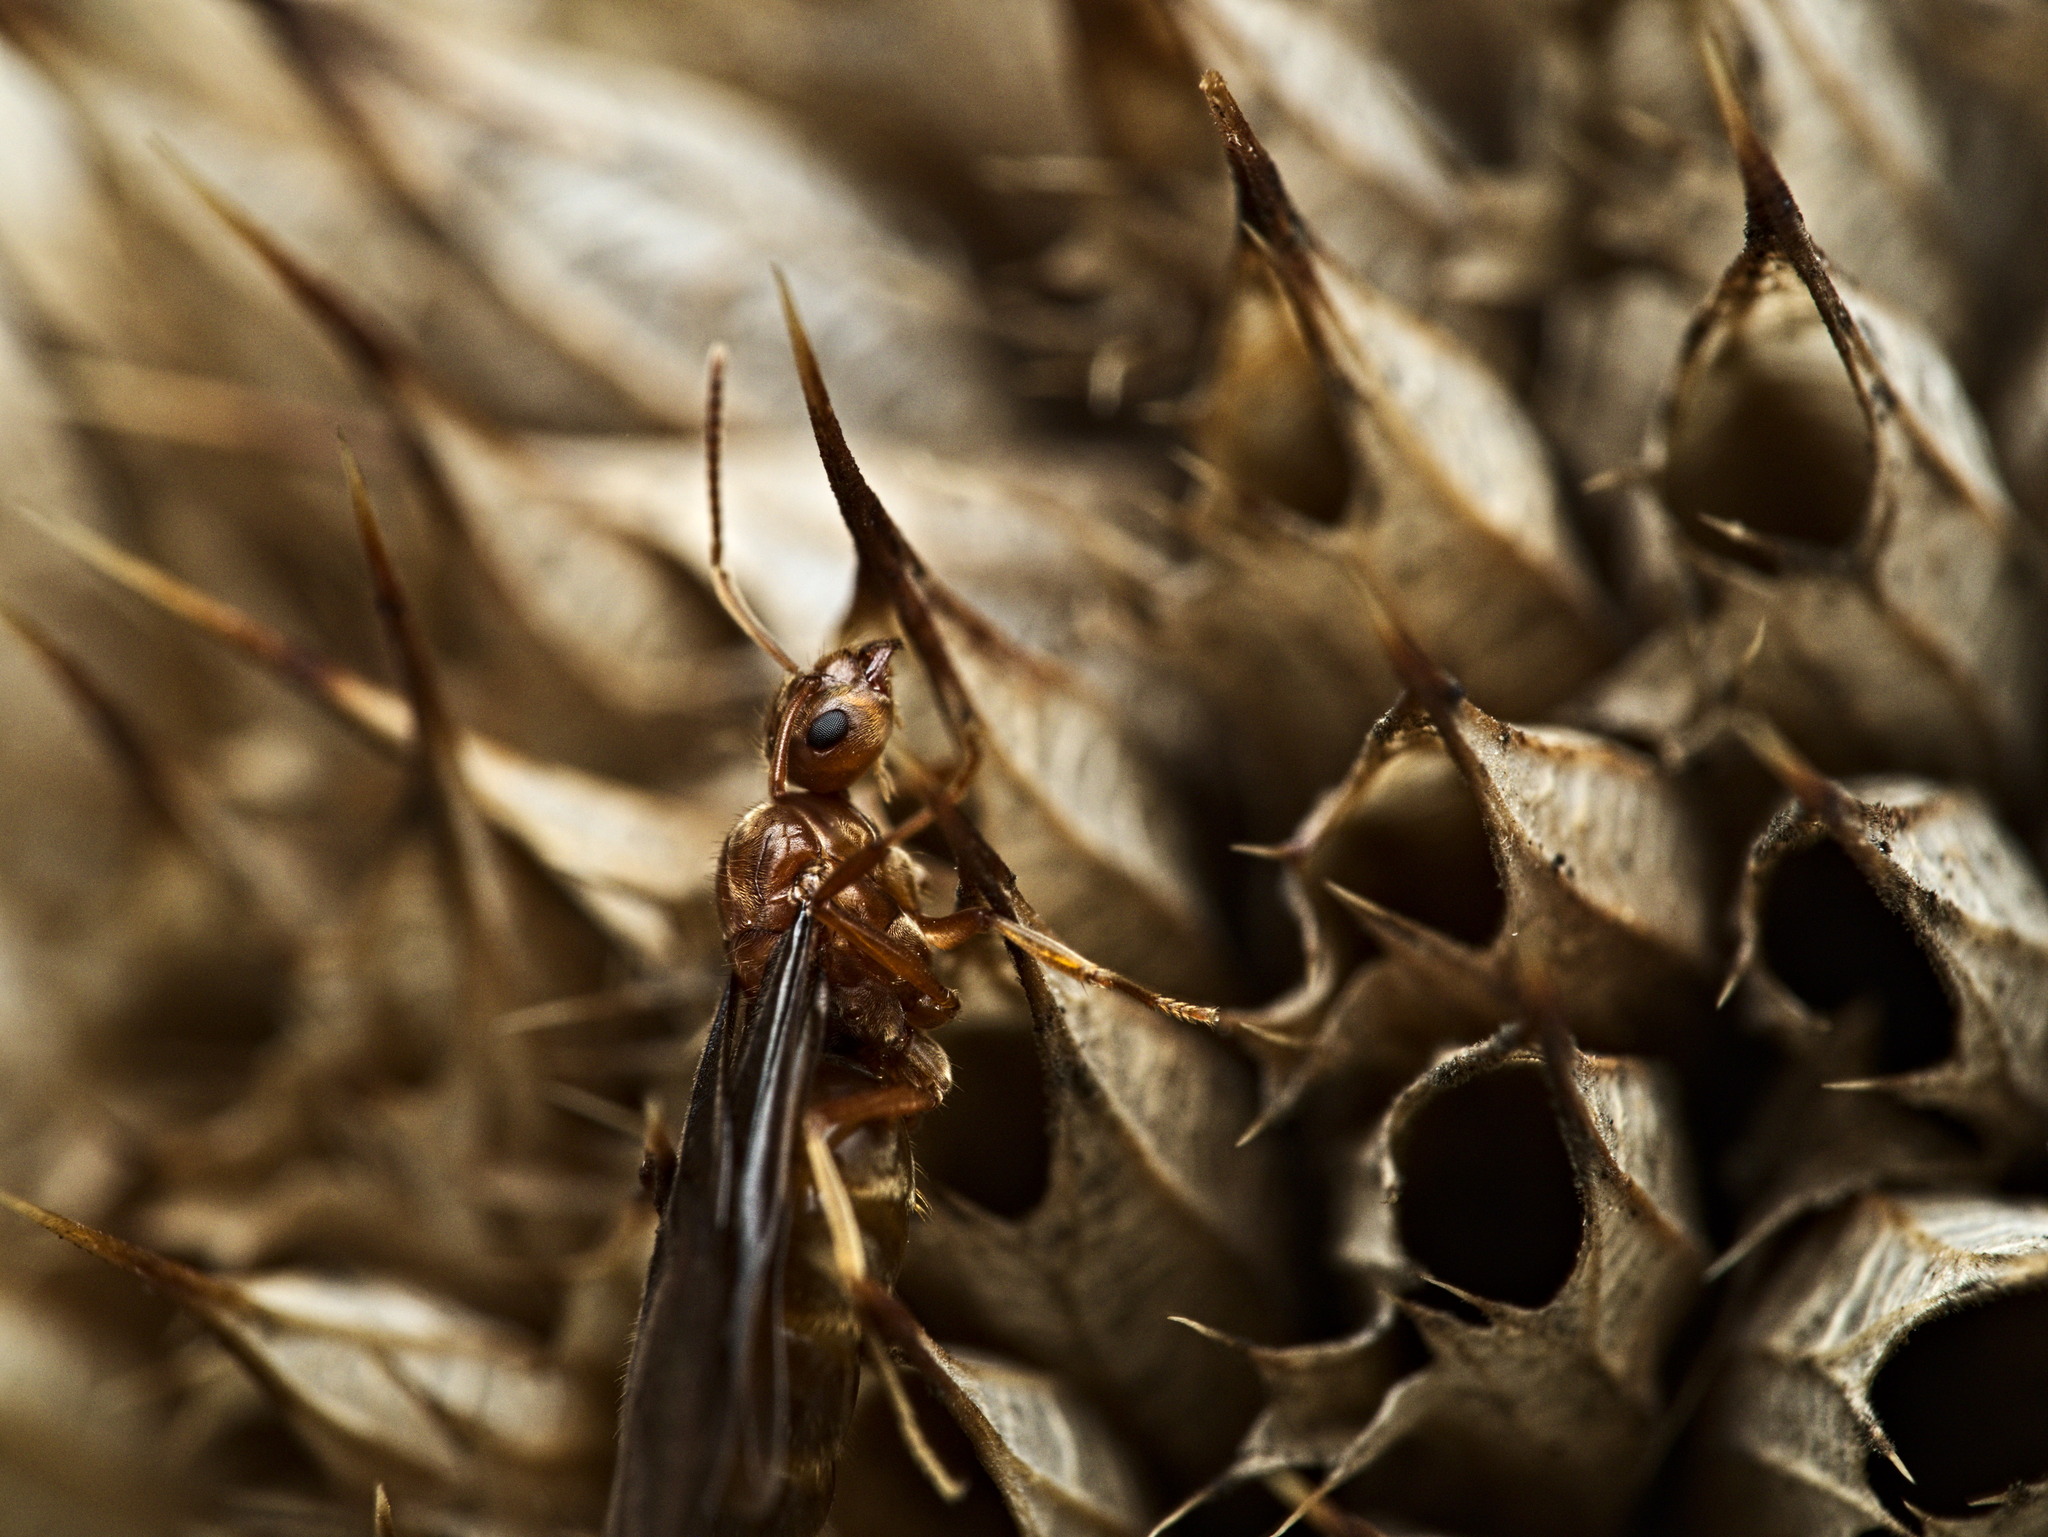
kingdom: Animalia
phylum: Arthropoda
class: Insecta
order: Hymenoptera
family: Formicidae
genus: Prenolepis
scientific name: Prenolepis imparis
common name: Small honey ant
